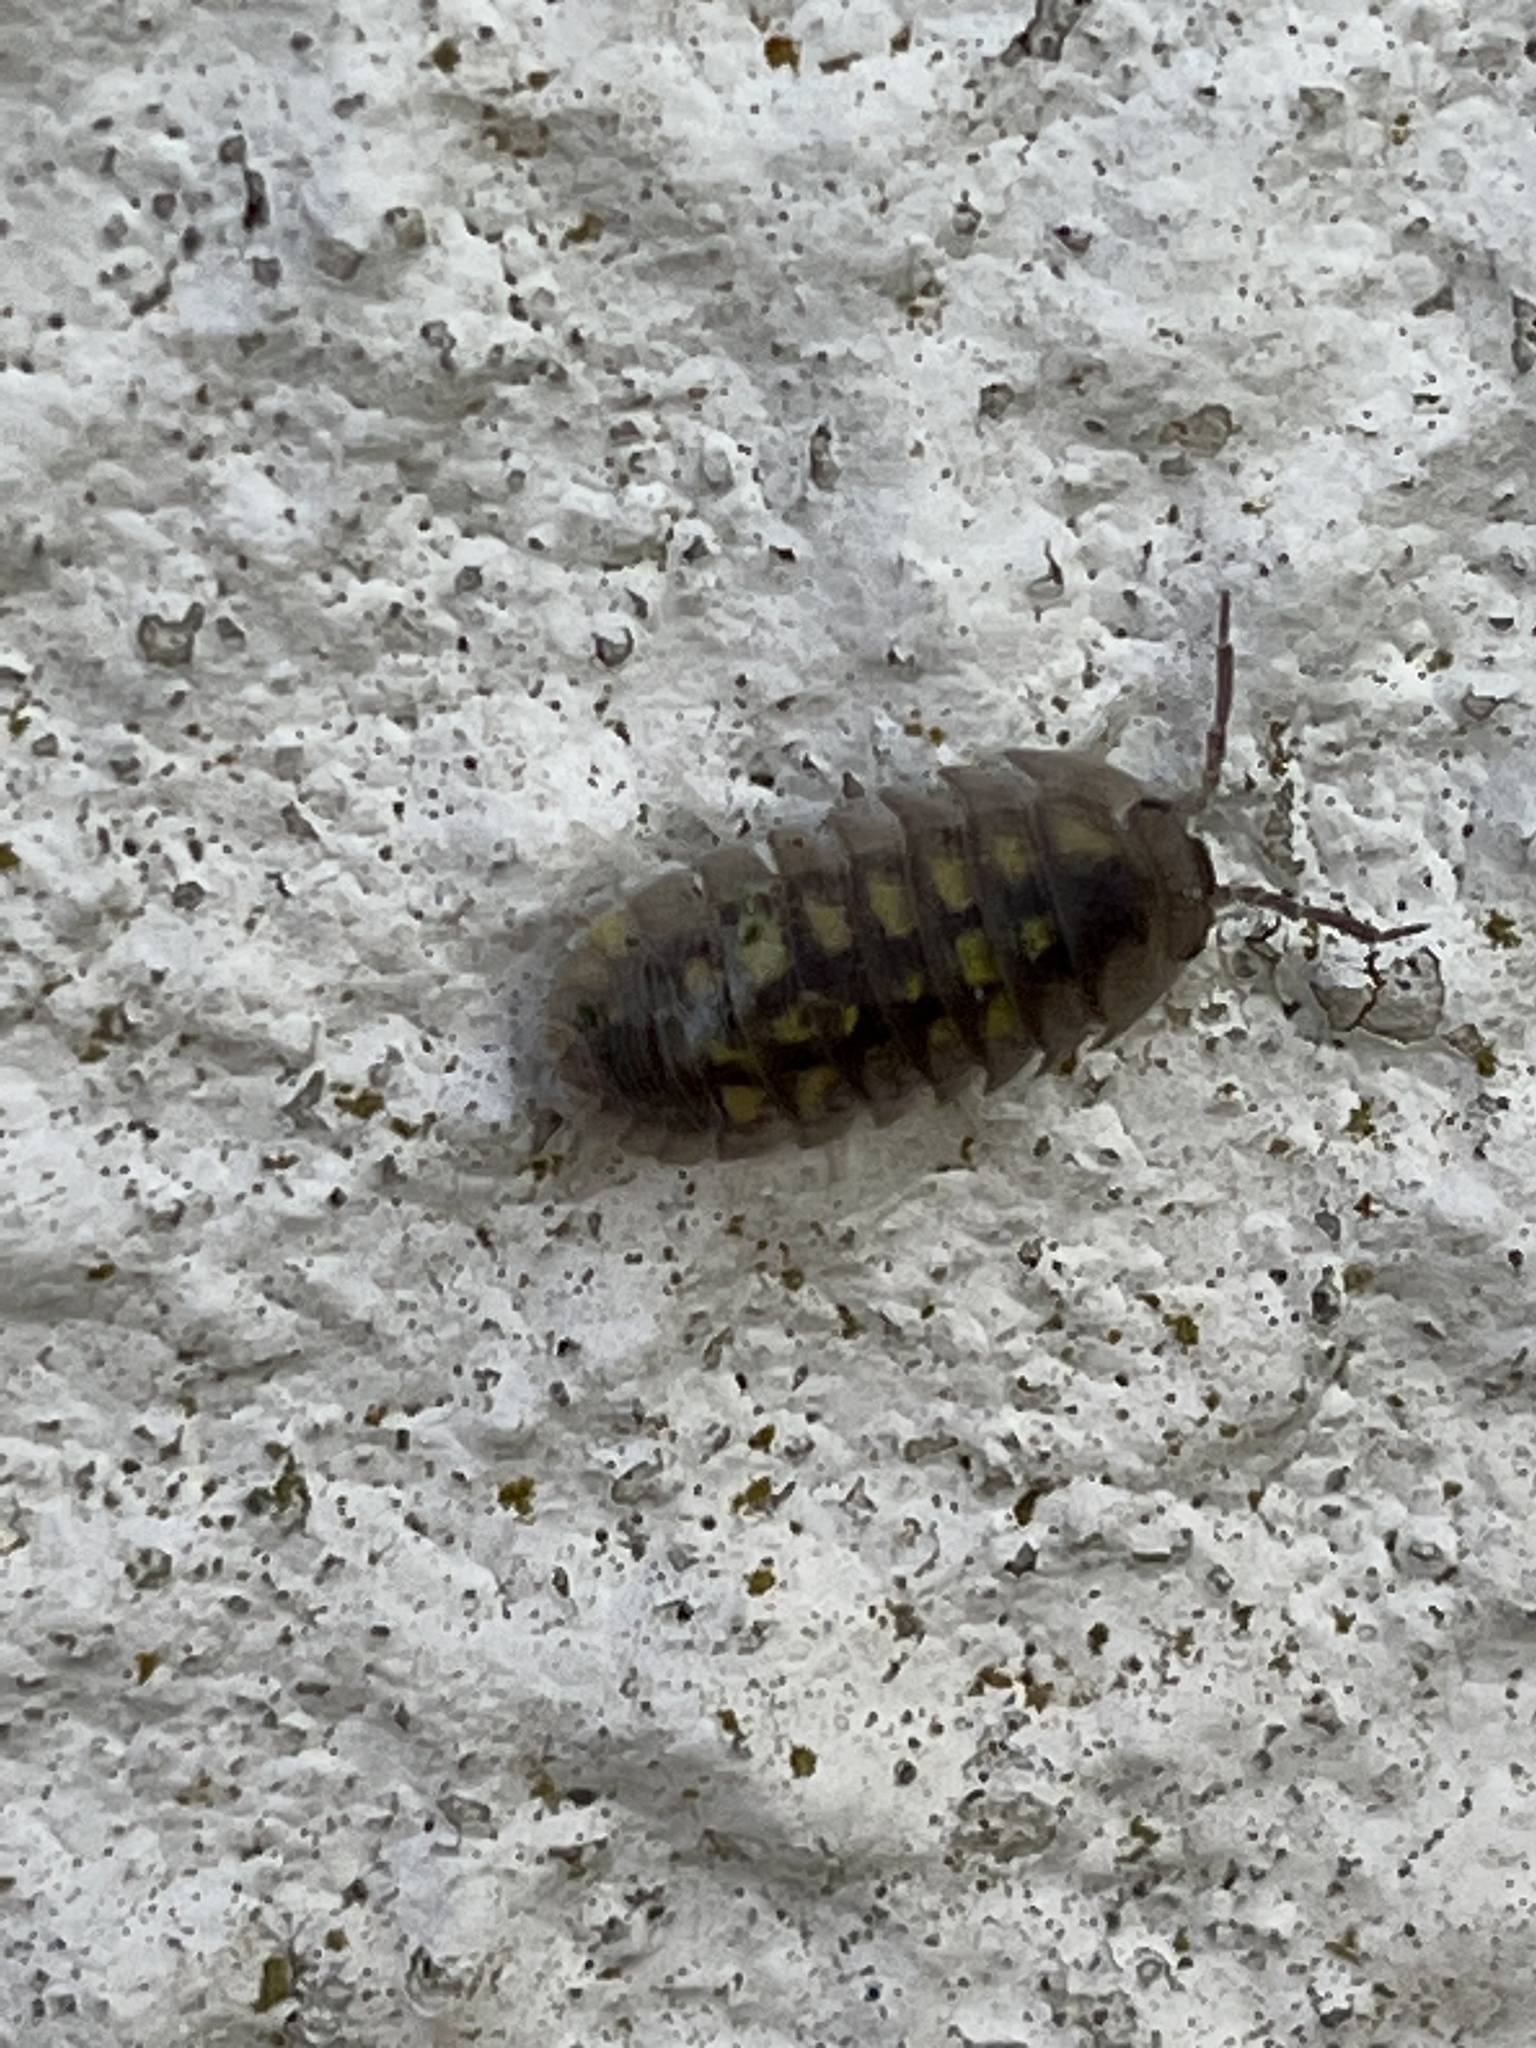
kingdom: Animalia
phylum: Arthropoda
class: Malacostraca
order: Isopoda
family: Armadillidiidae
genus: Armadillidium
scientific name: Armadillidium granulatum
